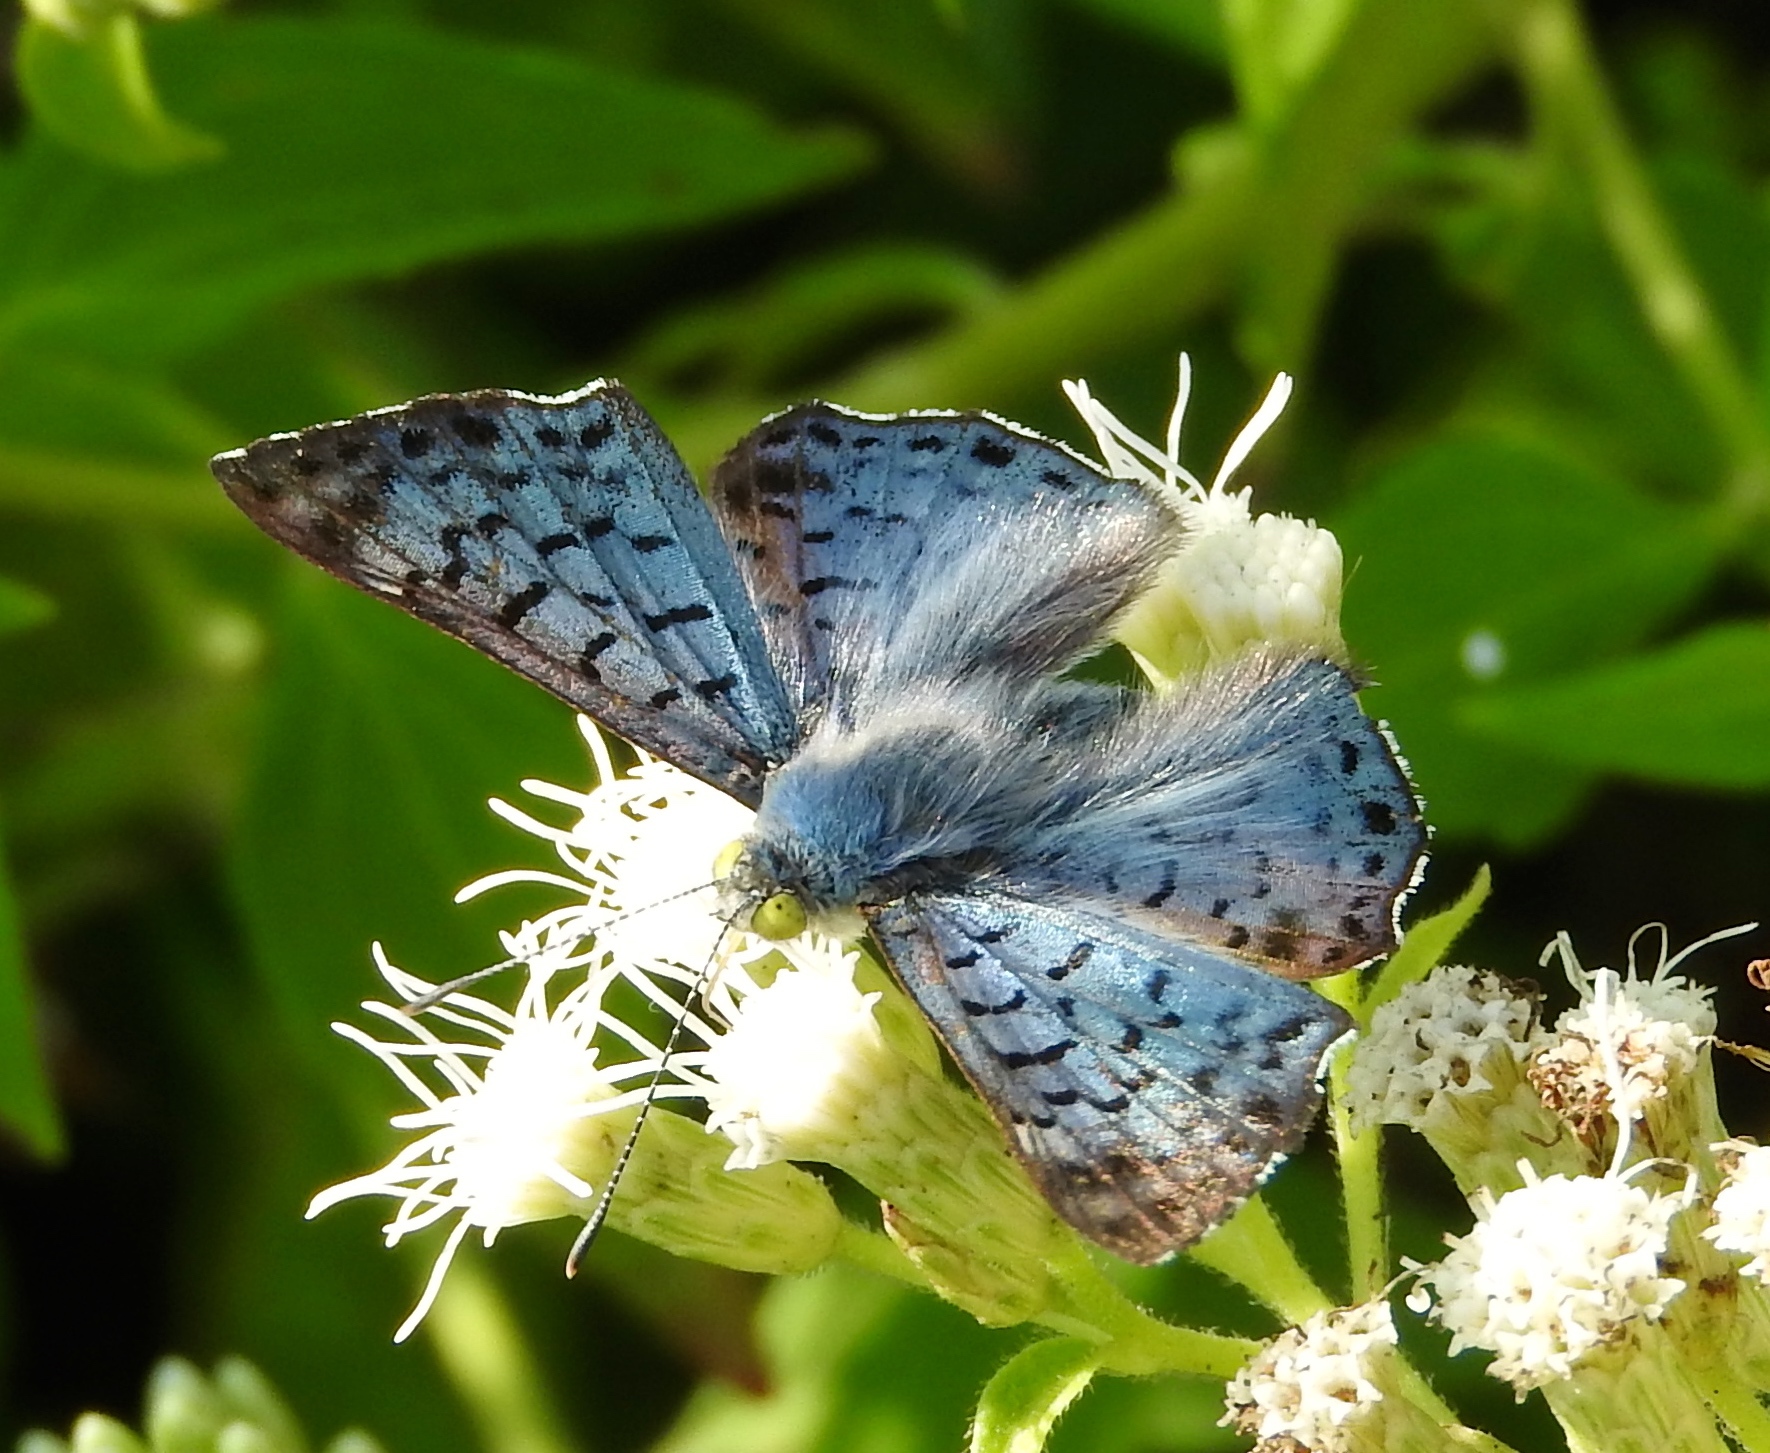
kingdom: Animalia
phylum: Arthropoda
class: Insecta
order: Lepidoptera
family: Riodinidae
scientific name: Riodinidae
